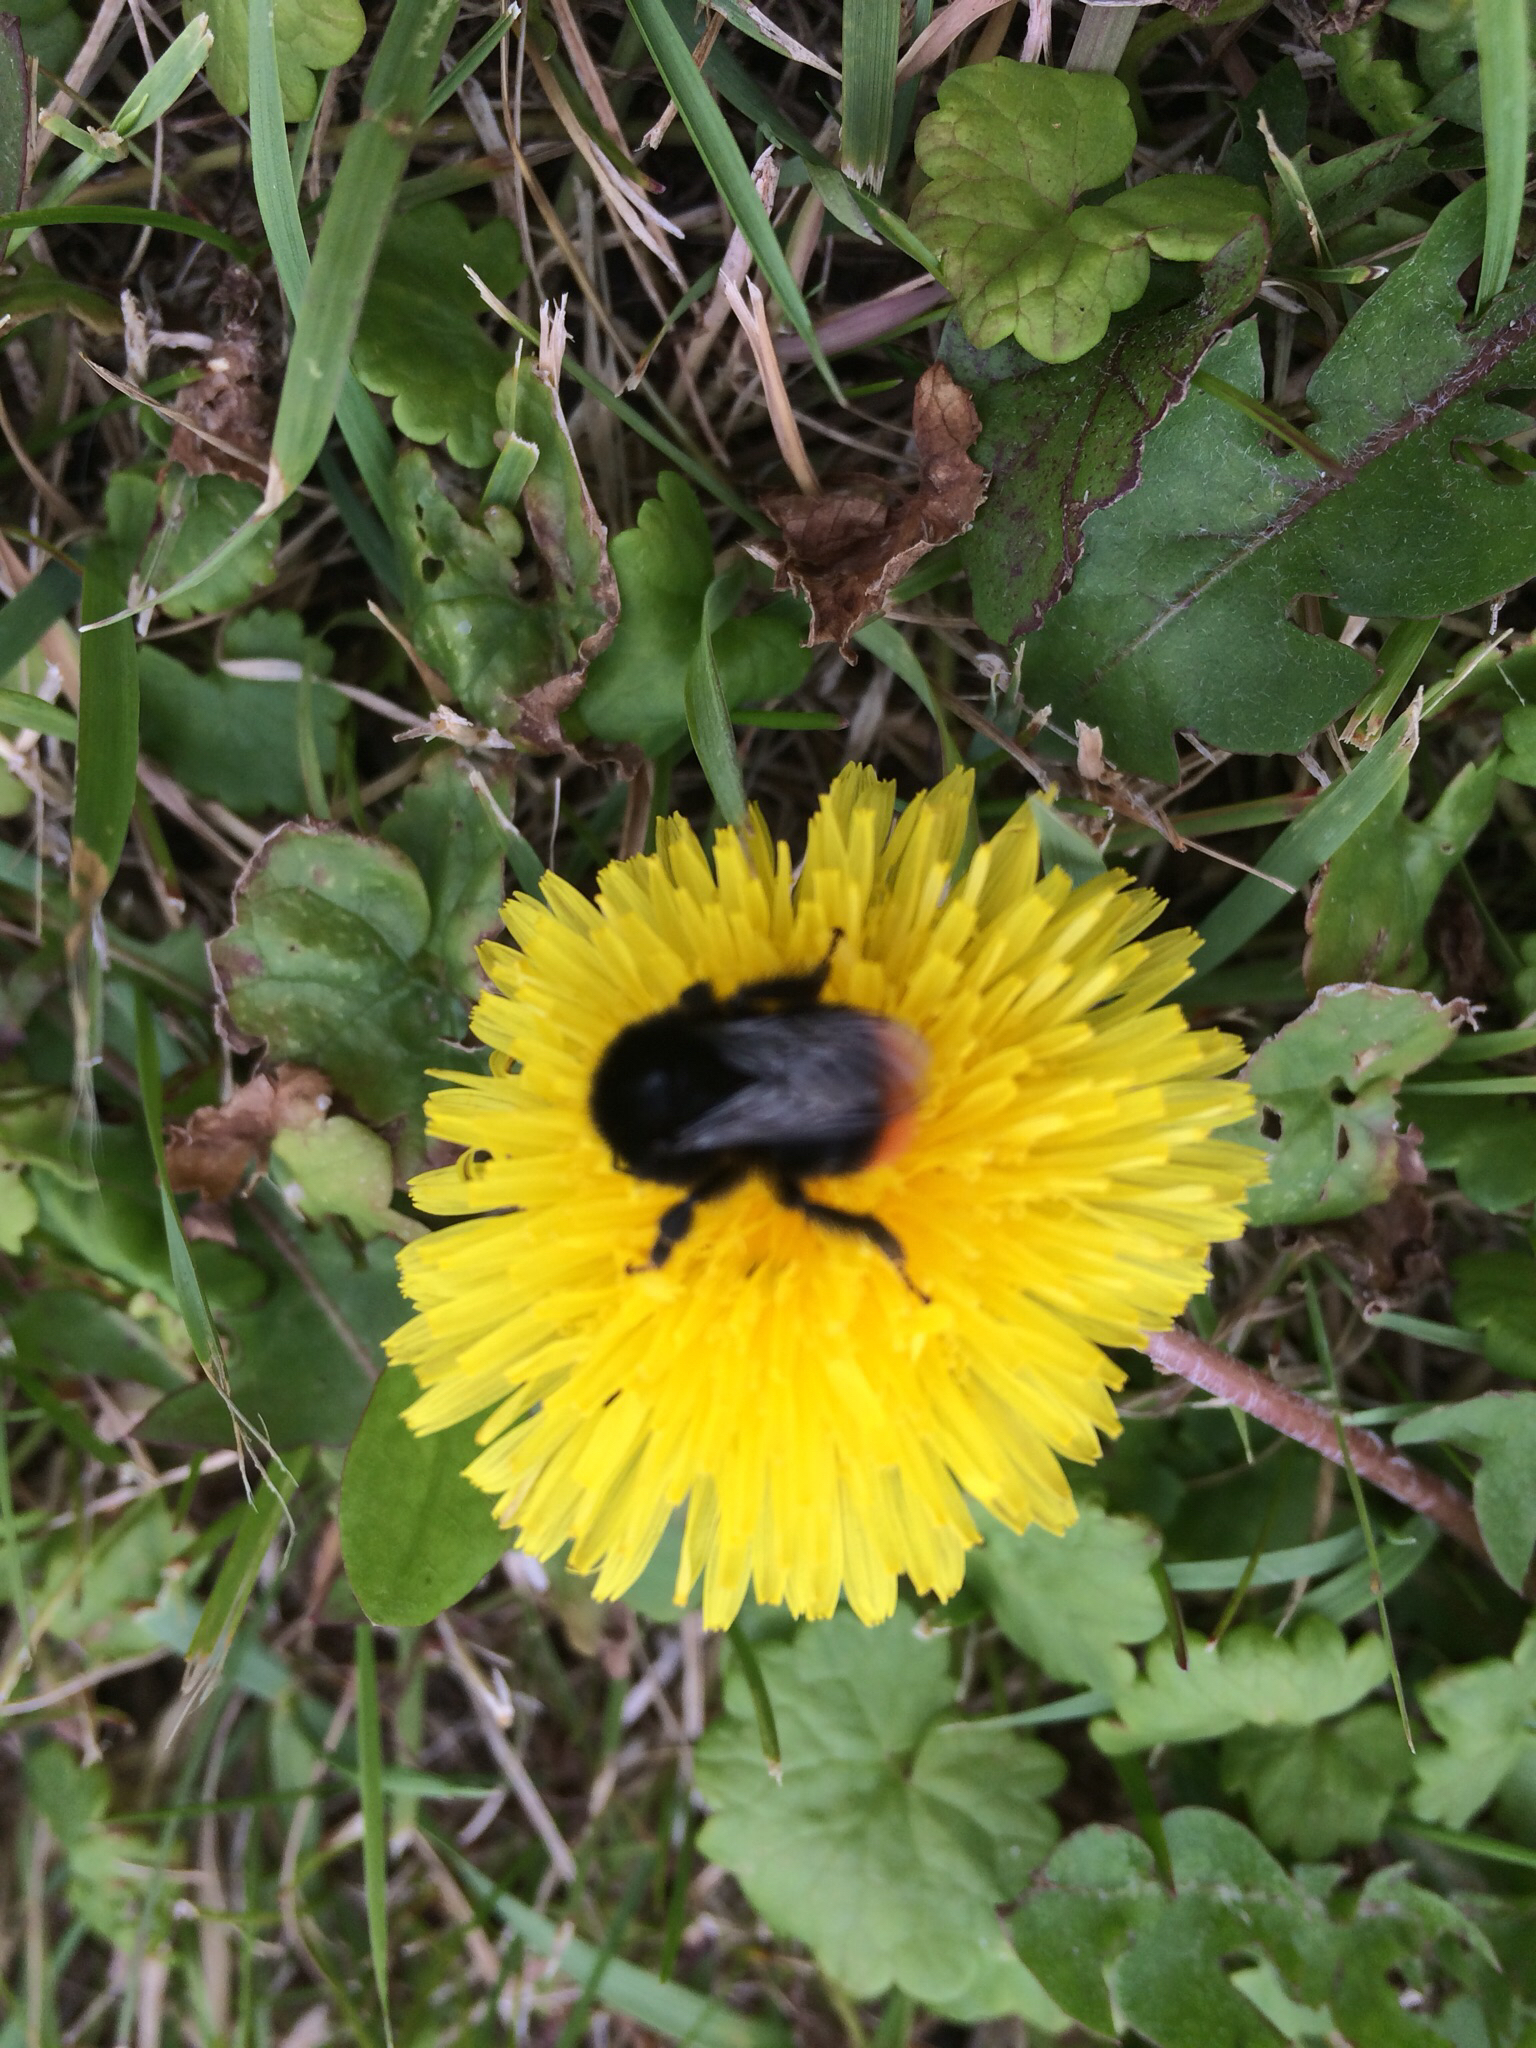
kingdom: Animalia
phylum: Arthropoda
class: Insecta
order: Hymenoptera
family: Apidae
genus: Bombus
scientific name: Bombus lapidarius
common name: Large red-tailed humble-bee
